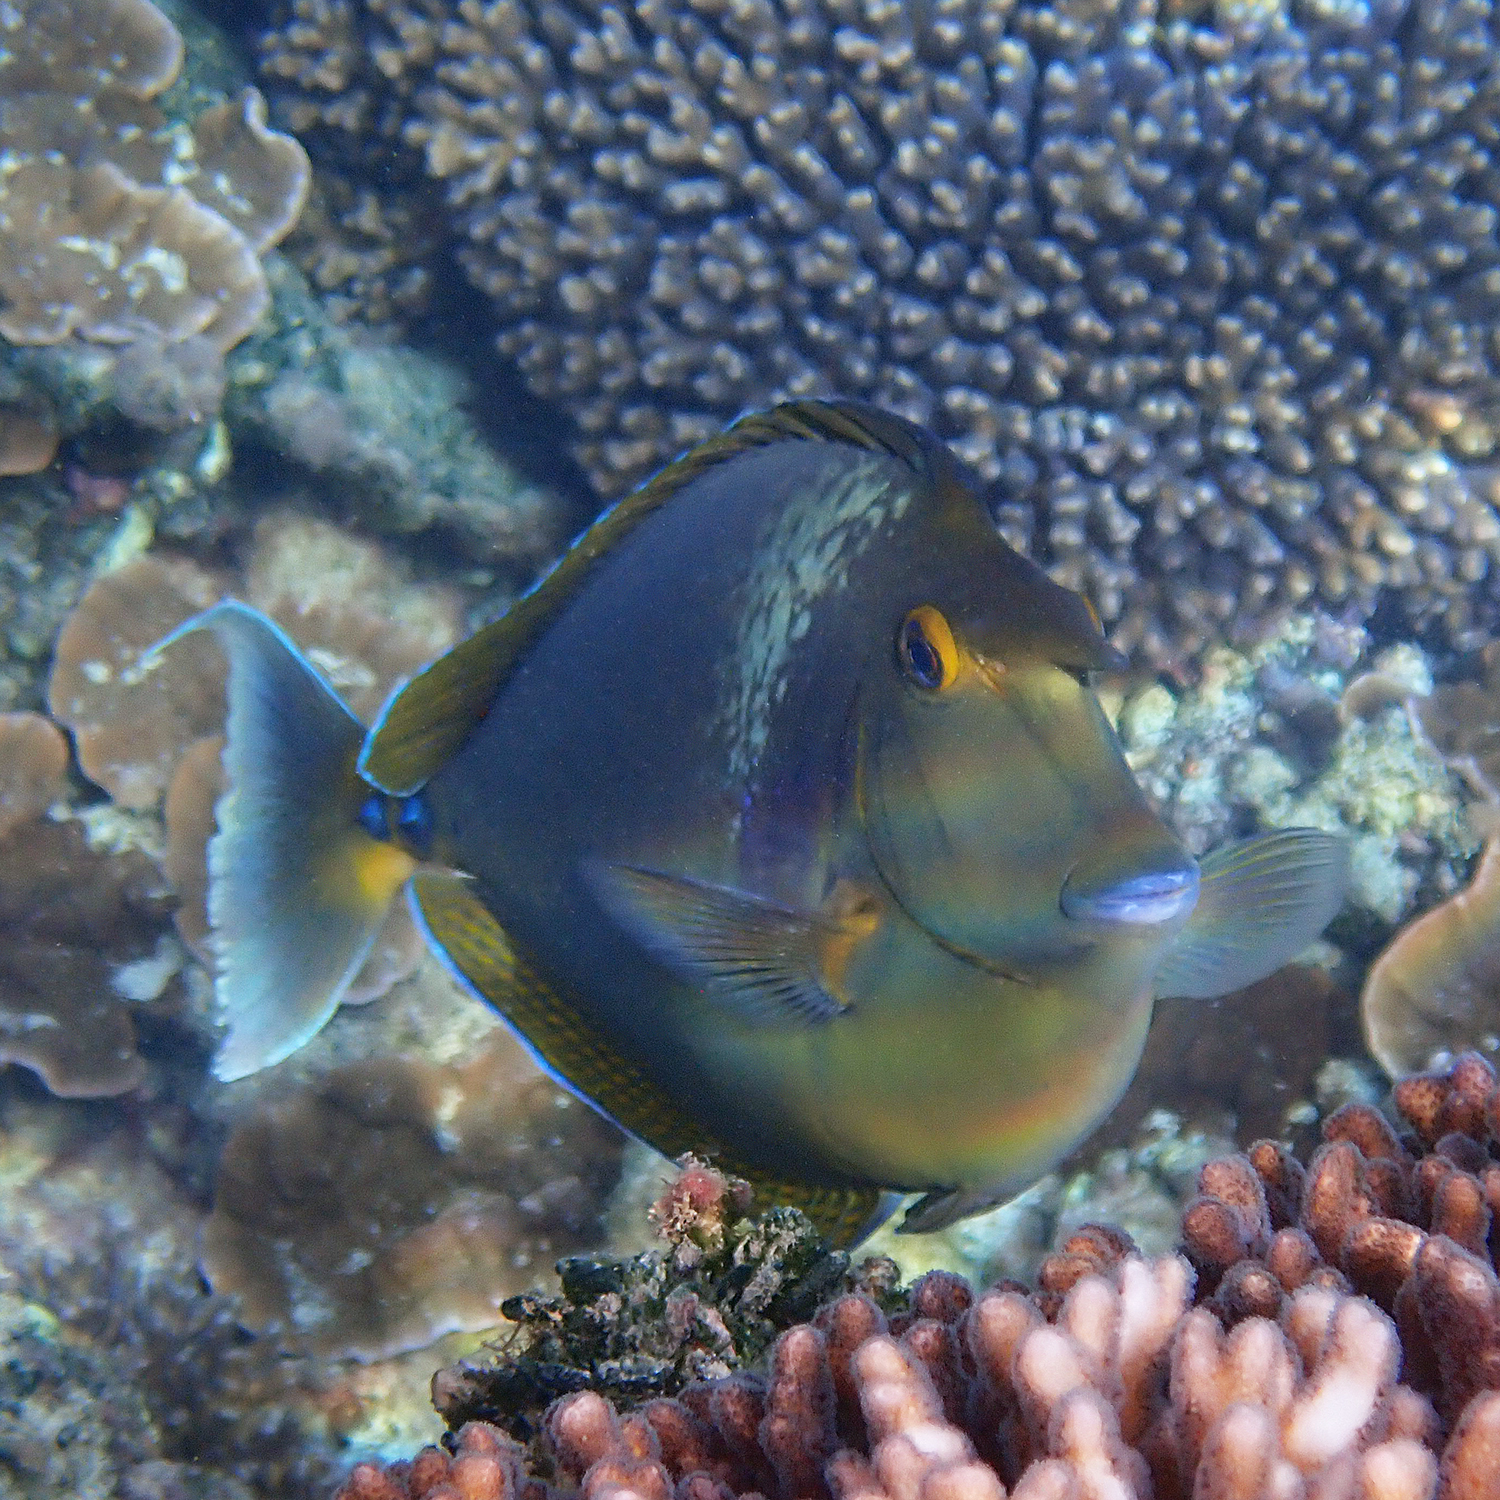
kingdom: Animalia
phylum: Chordata
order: Perciformes
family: Acanthuridae
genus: Naso
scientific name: Naso unicornis
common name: Bluespine unicornfish
